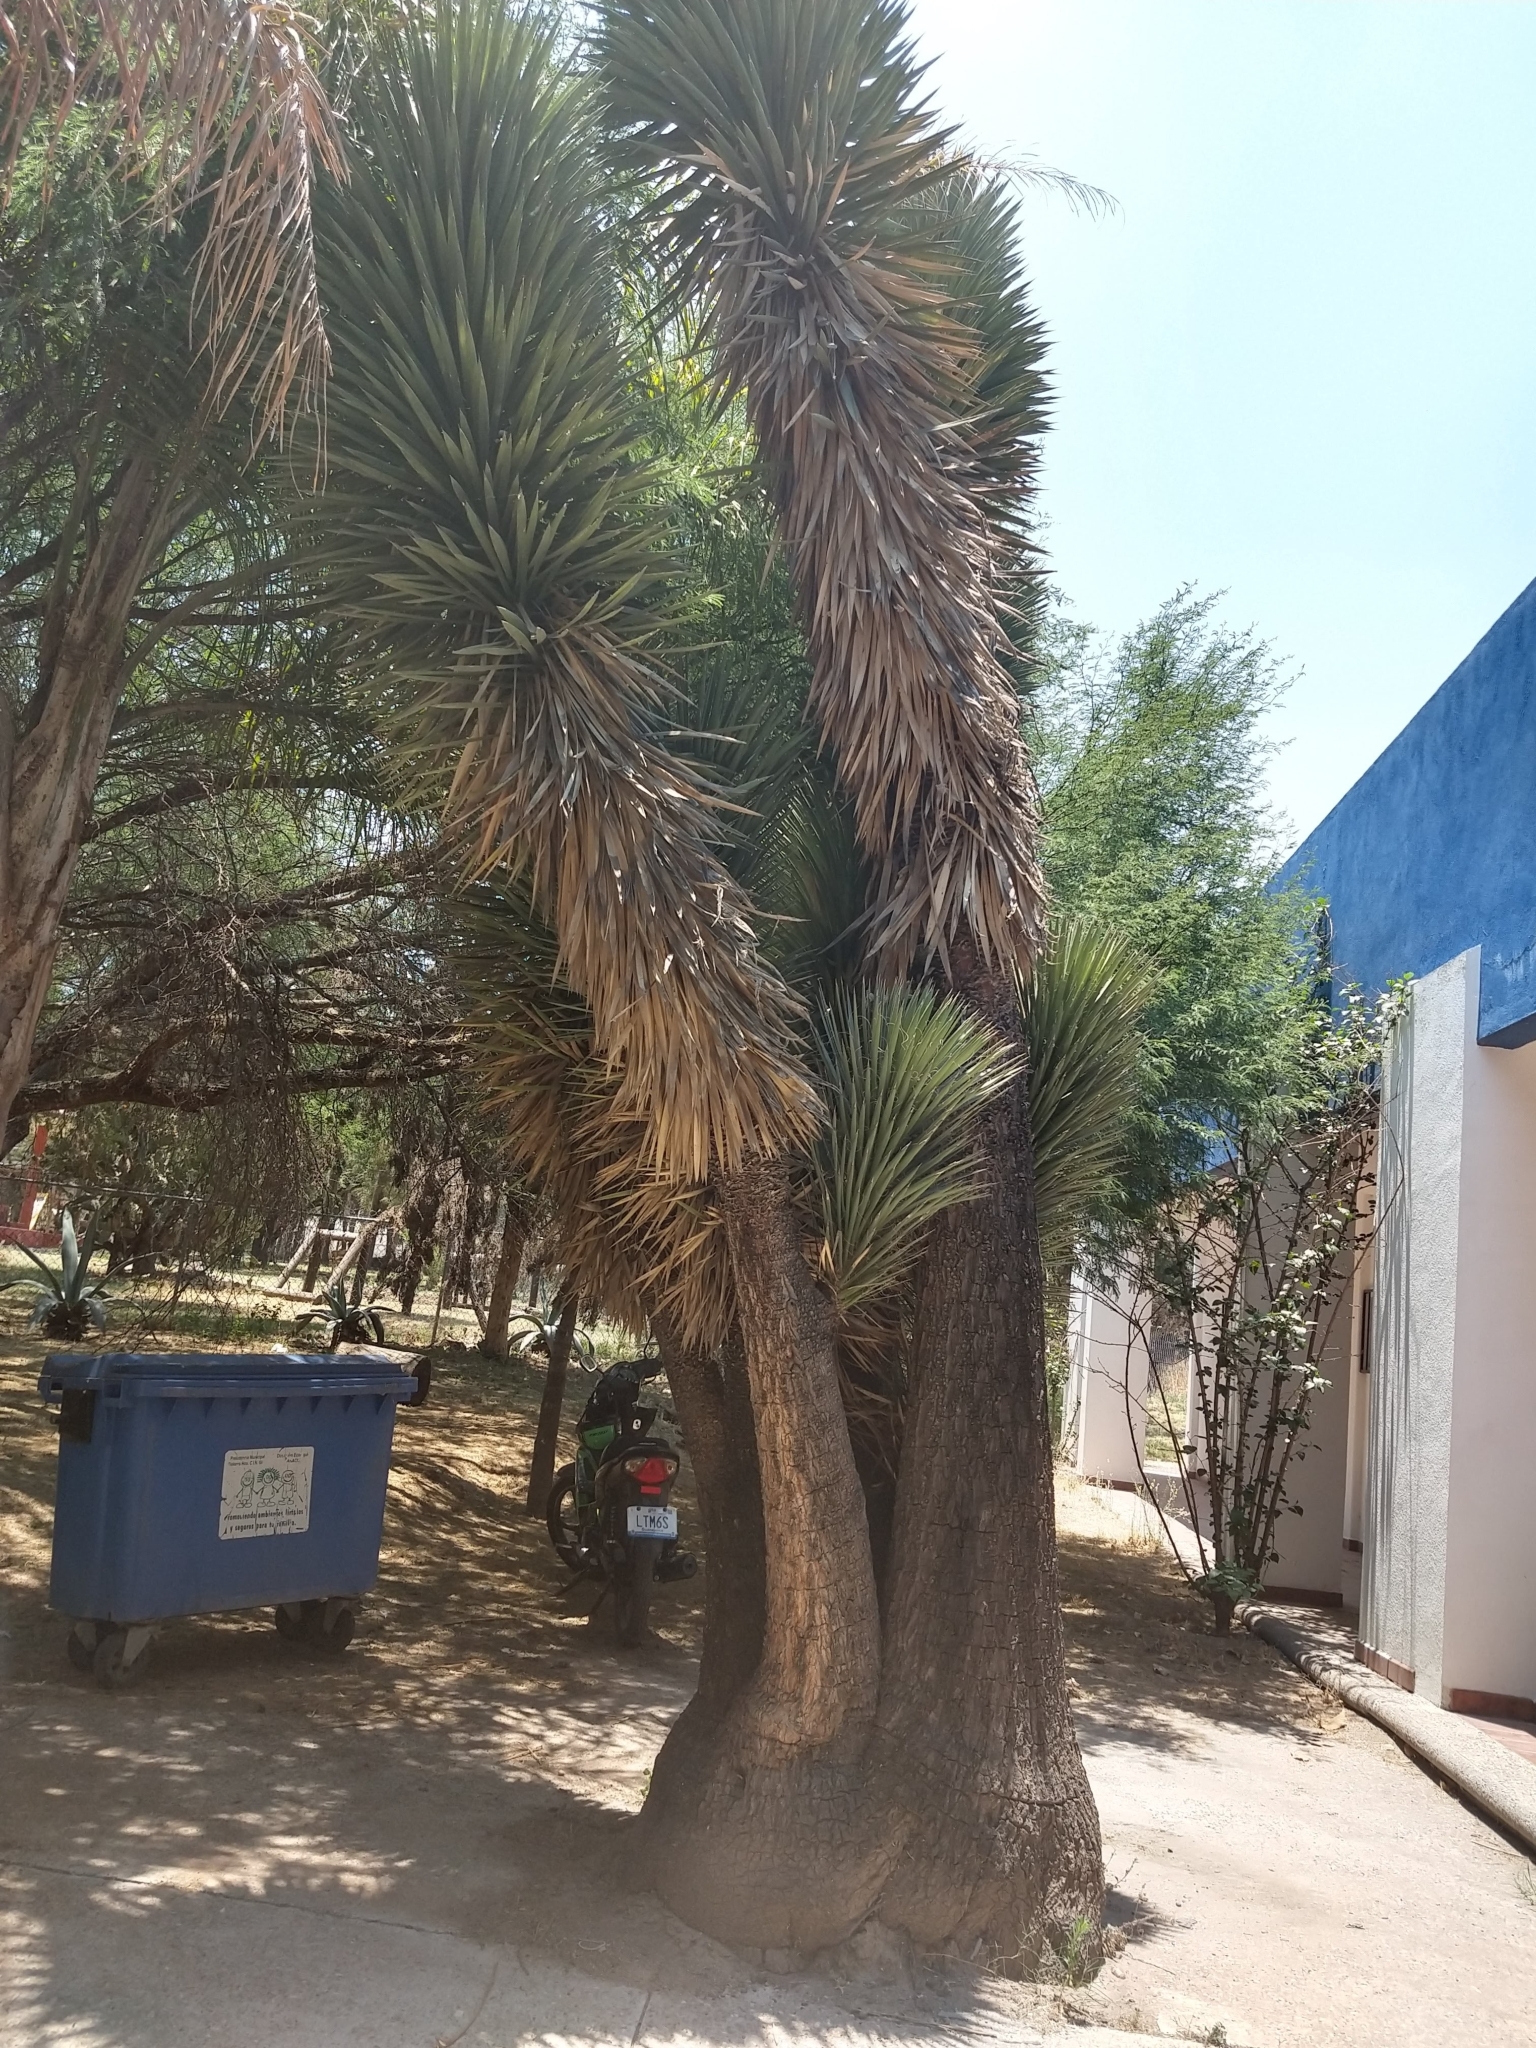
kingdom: Plantae
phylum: Tracheophyta
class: Liliopsida
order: Asparagales
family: Asparagaceae
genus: Yucca
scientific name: Yucca decipiens
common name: Chinese palm
